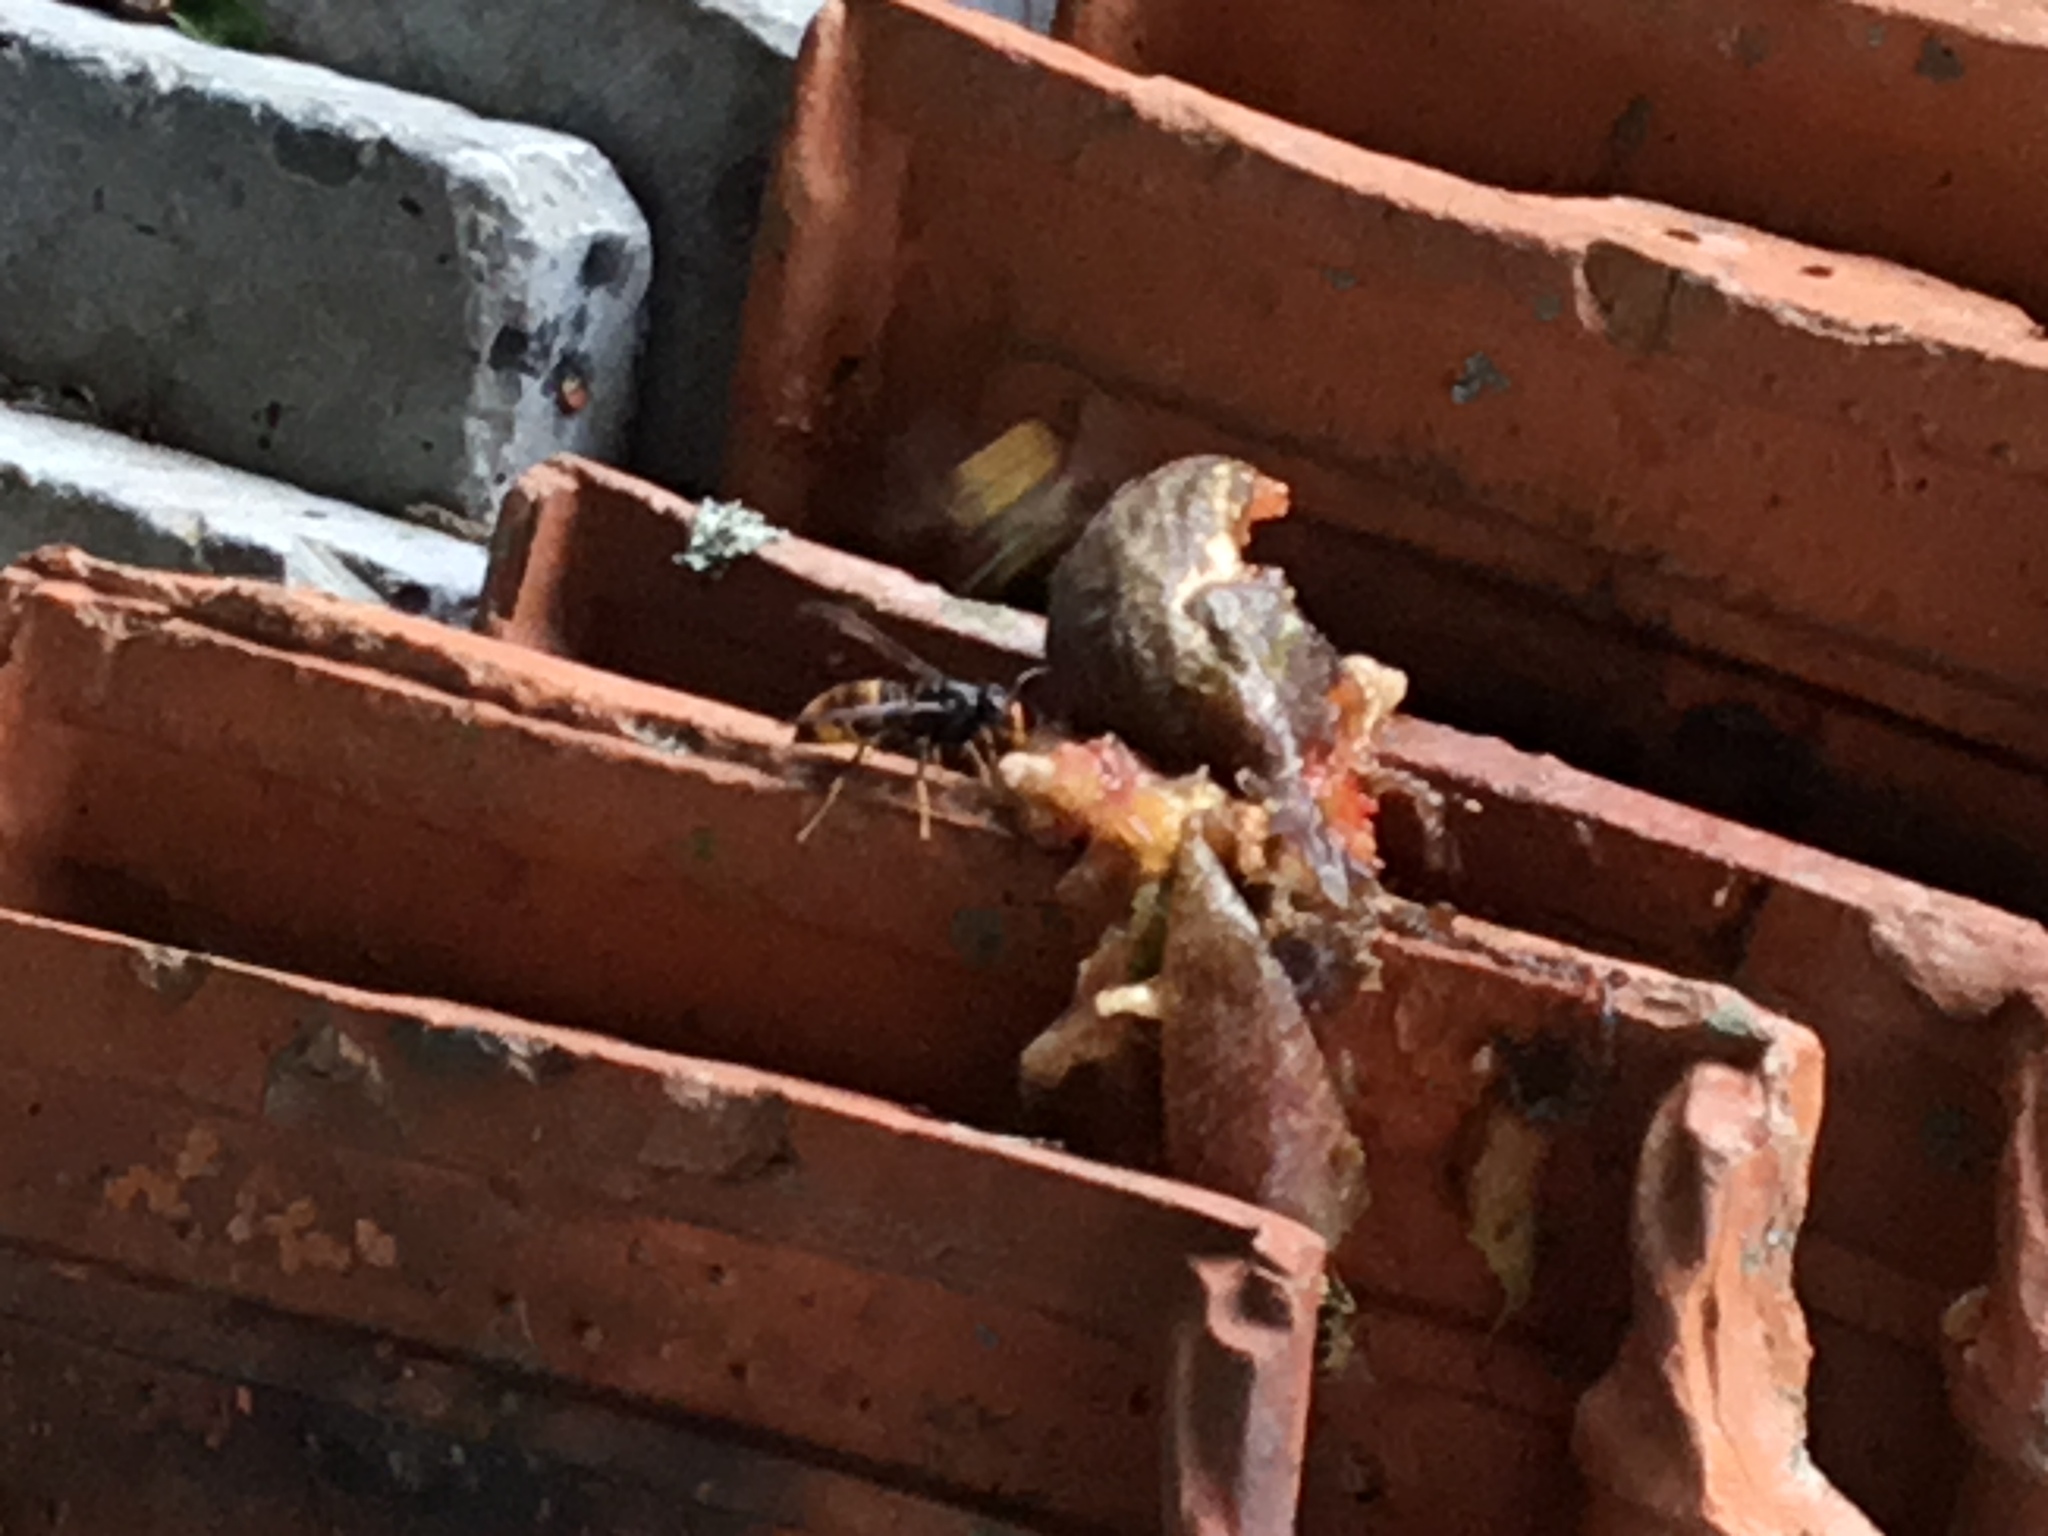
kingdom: Animalia
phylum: Arthropoda
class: Insecta
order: Hymenoptera
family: Vespidae
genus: Vespa
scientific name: Vespa velutina
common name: Asian hornet
